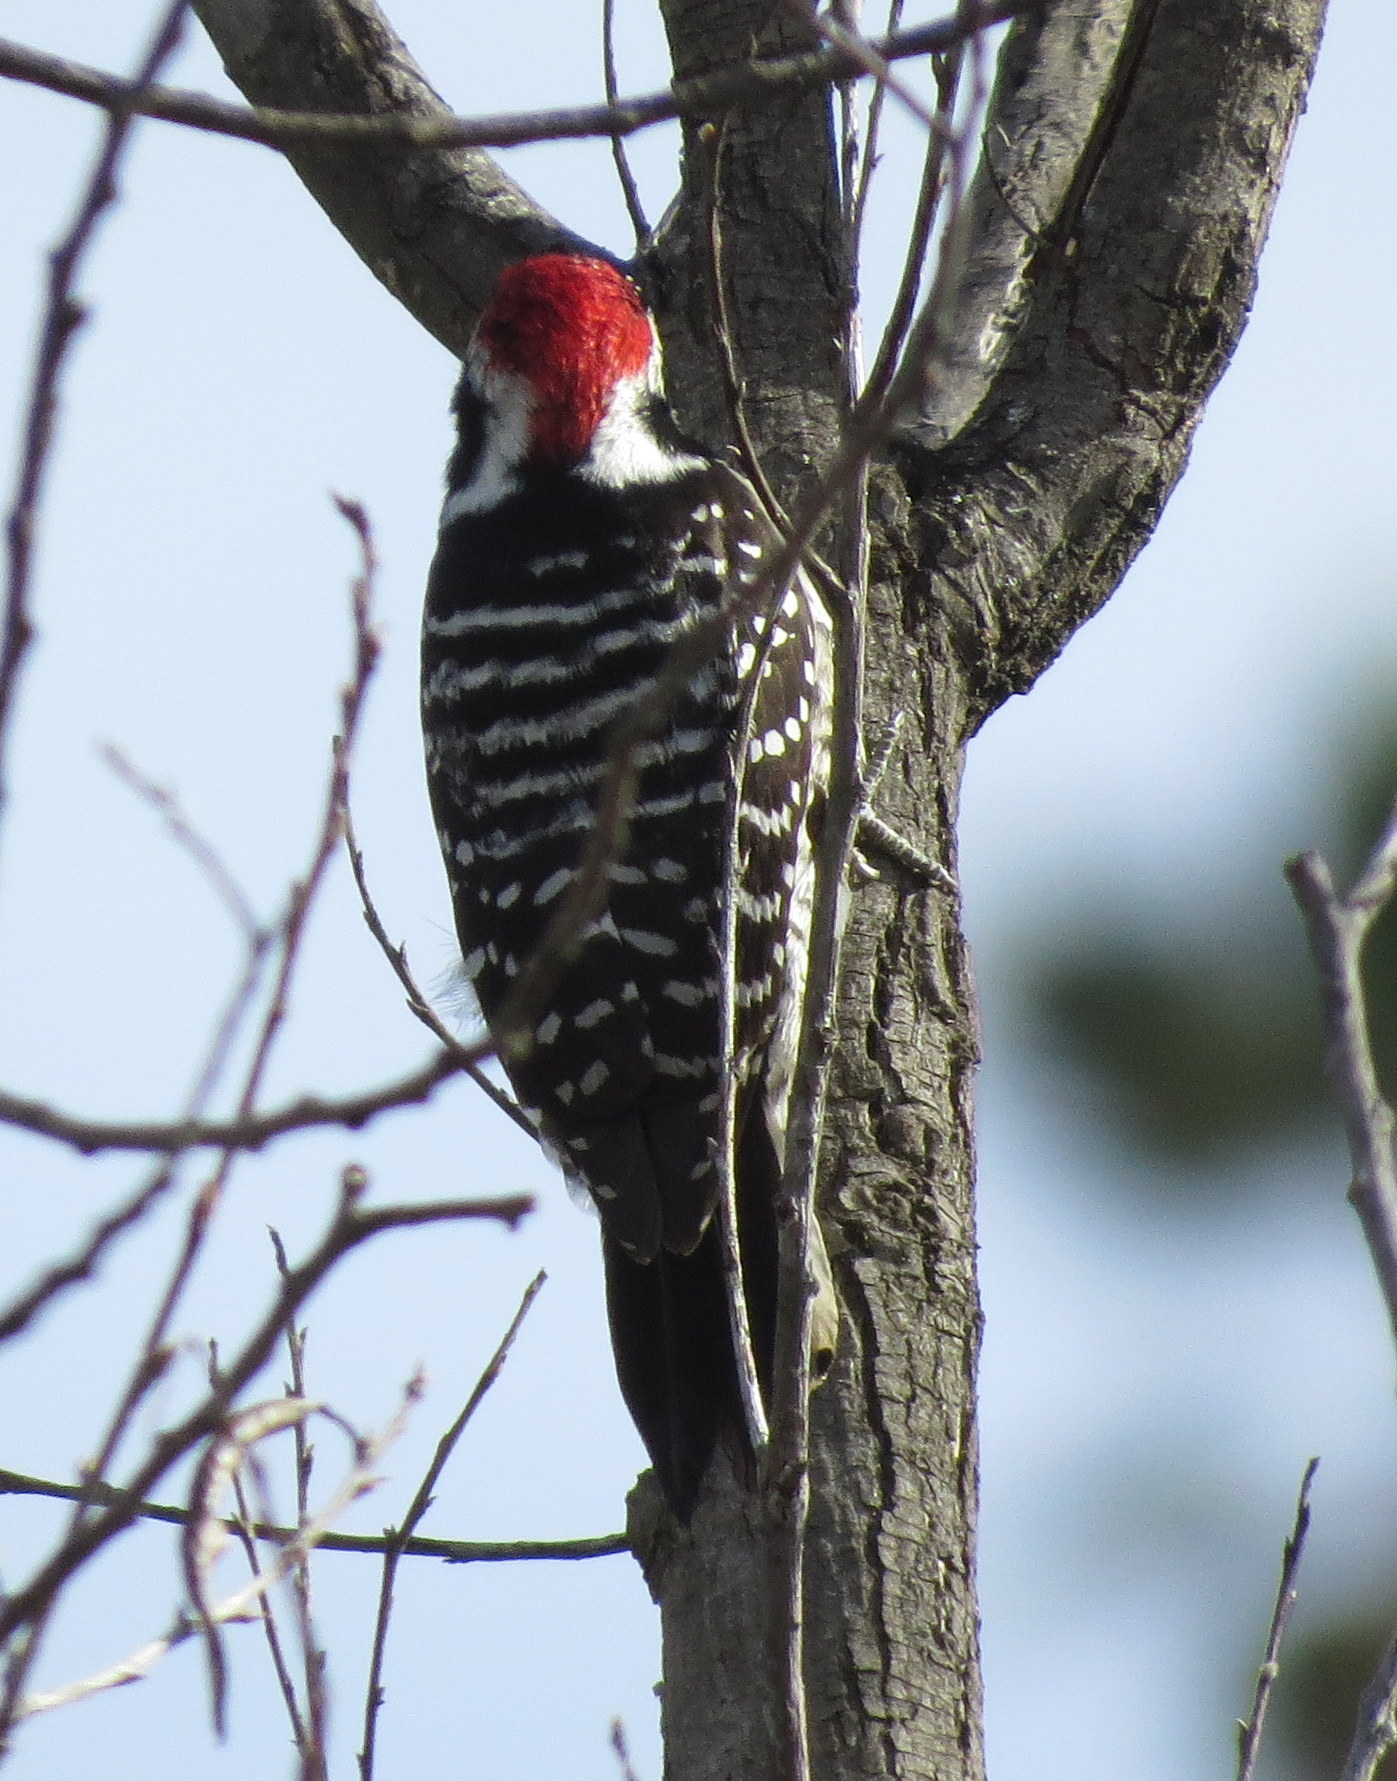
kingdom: Animalia
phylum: Chordata
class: Aves
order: Piciformes
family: Picidae
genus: Dryobates
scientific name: Dryobates nuttallii
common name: Nuttall's woodpecker
